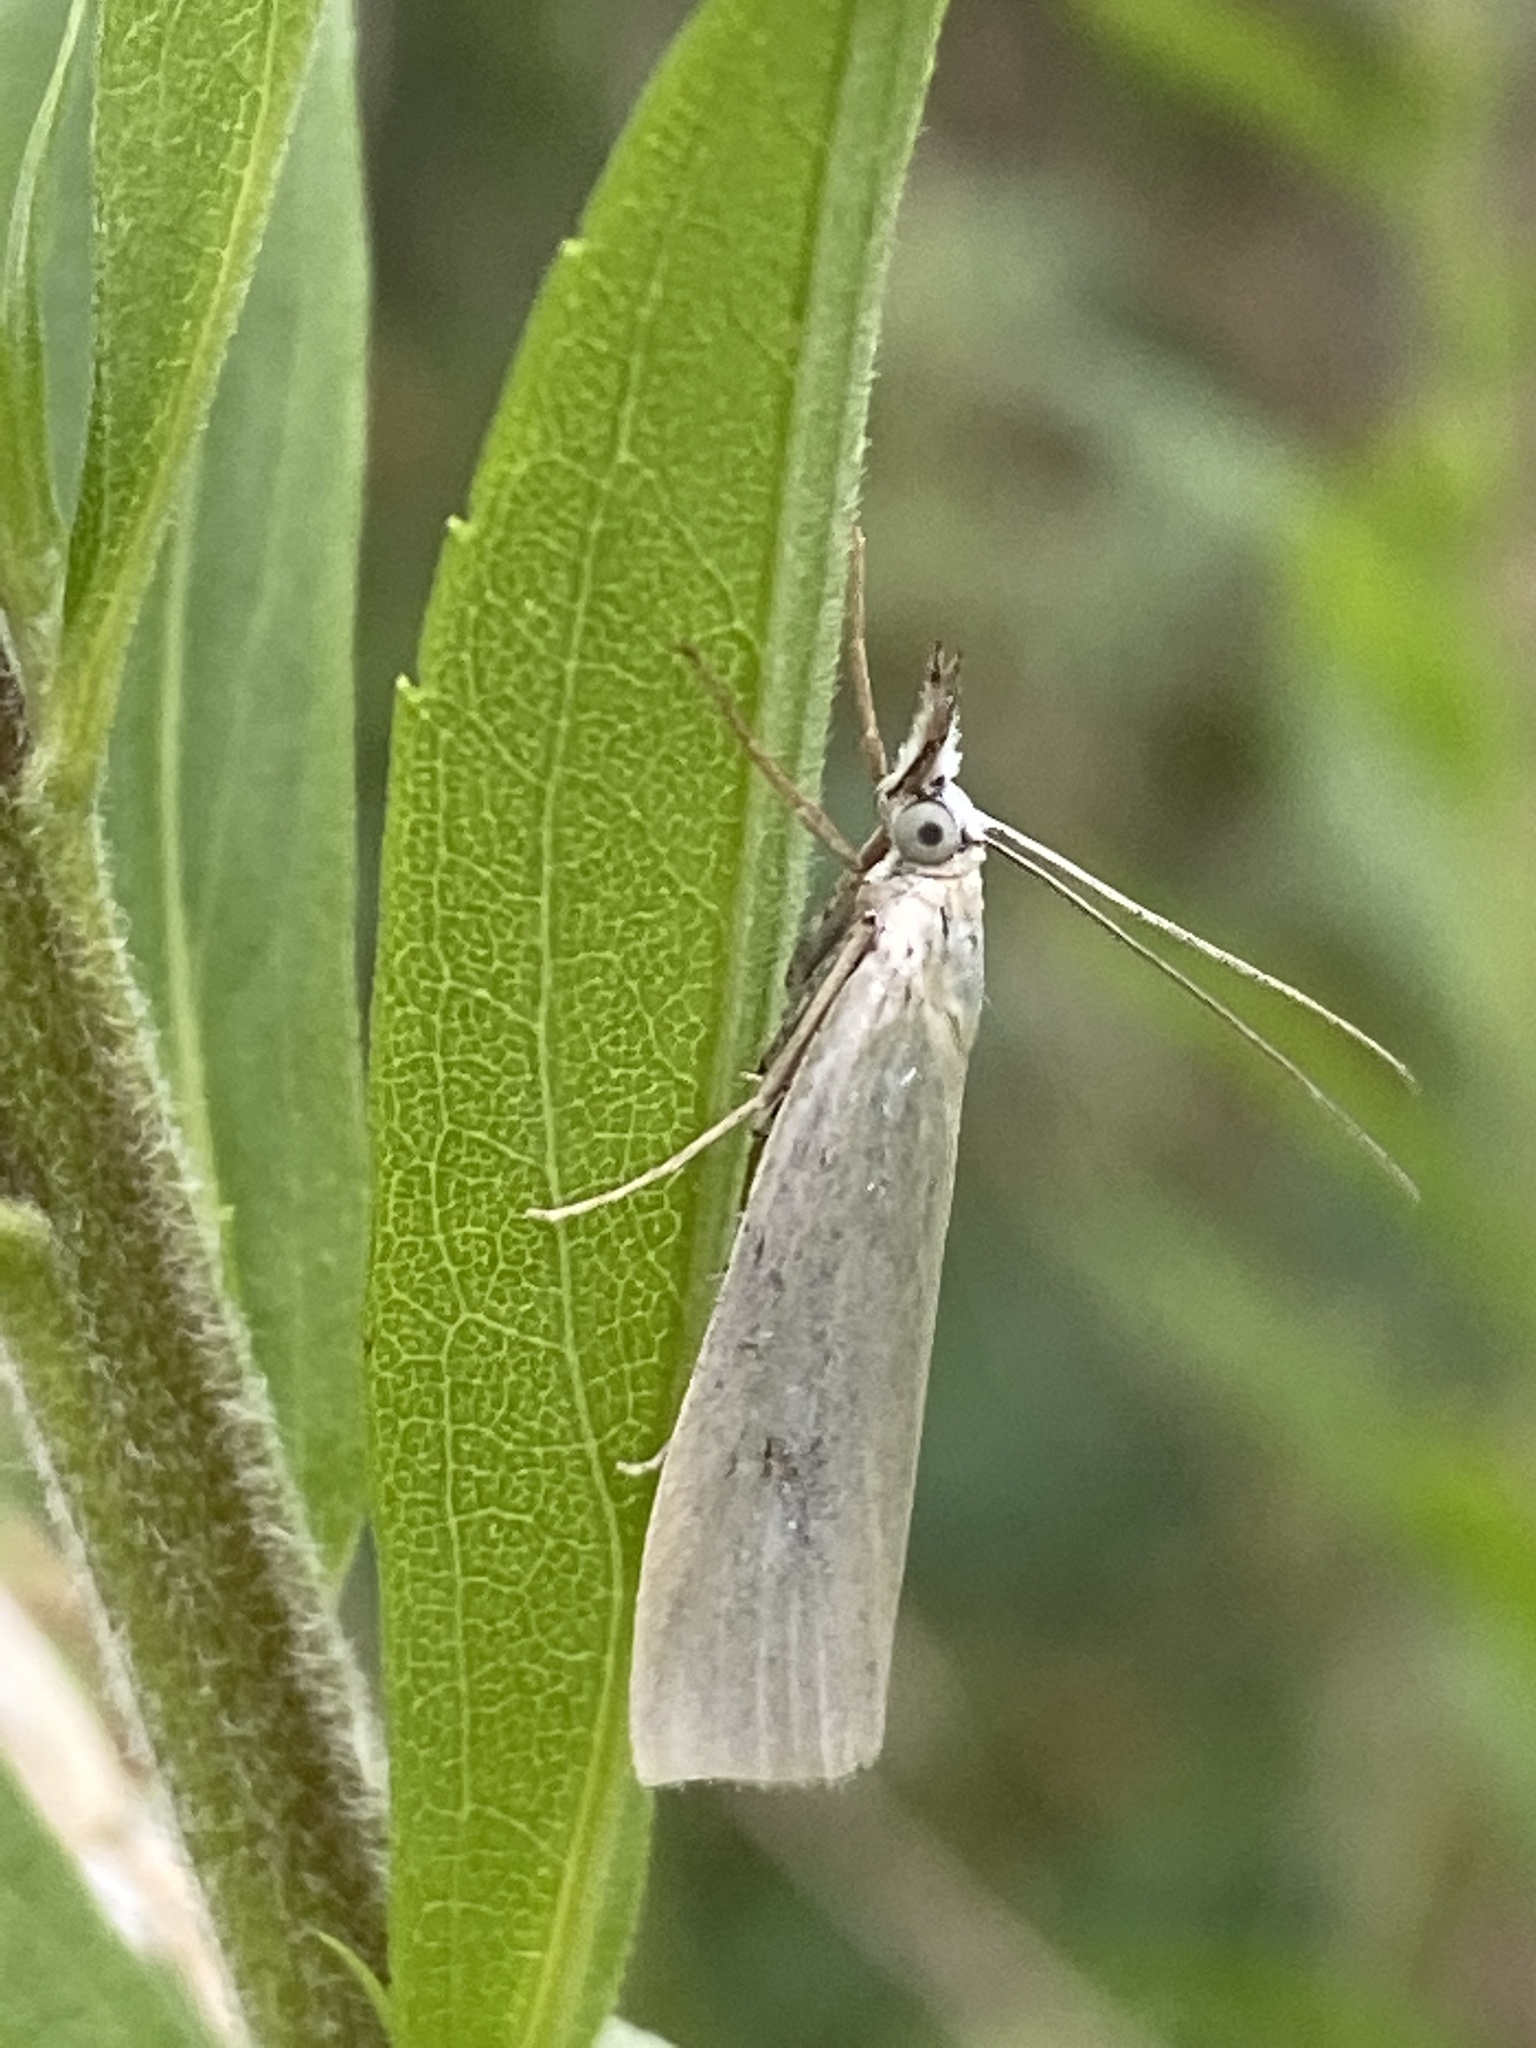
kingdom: Animalia
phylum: Arthropoda
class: Insecta
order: Lepidoptera
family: Crambidae
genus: Crambus
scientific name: Crambus perlellus
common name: Yellow satin veneer
